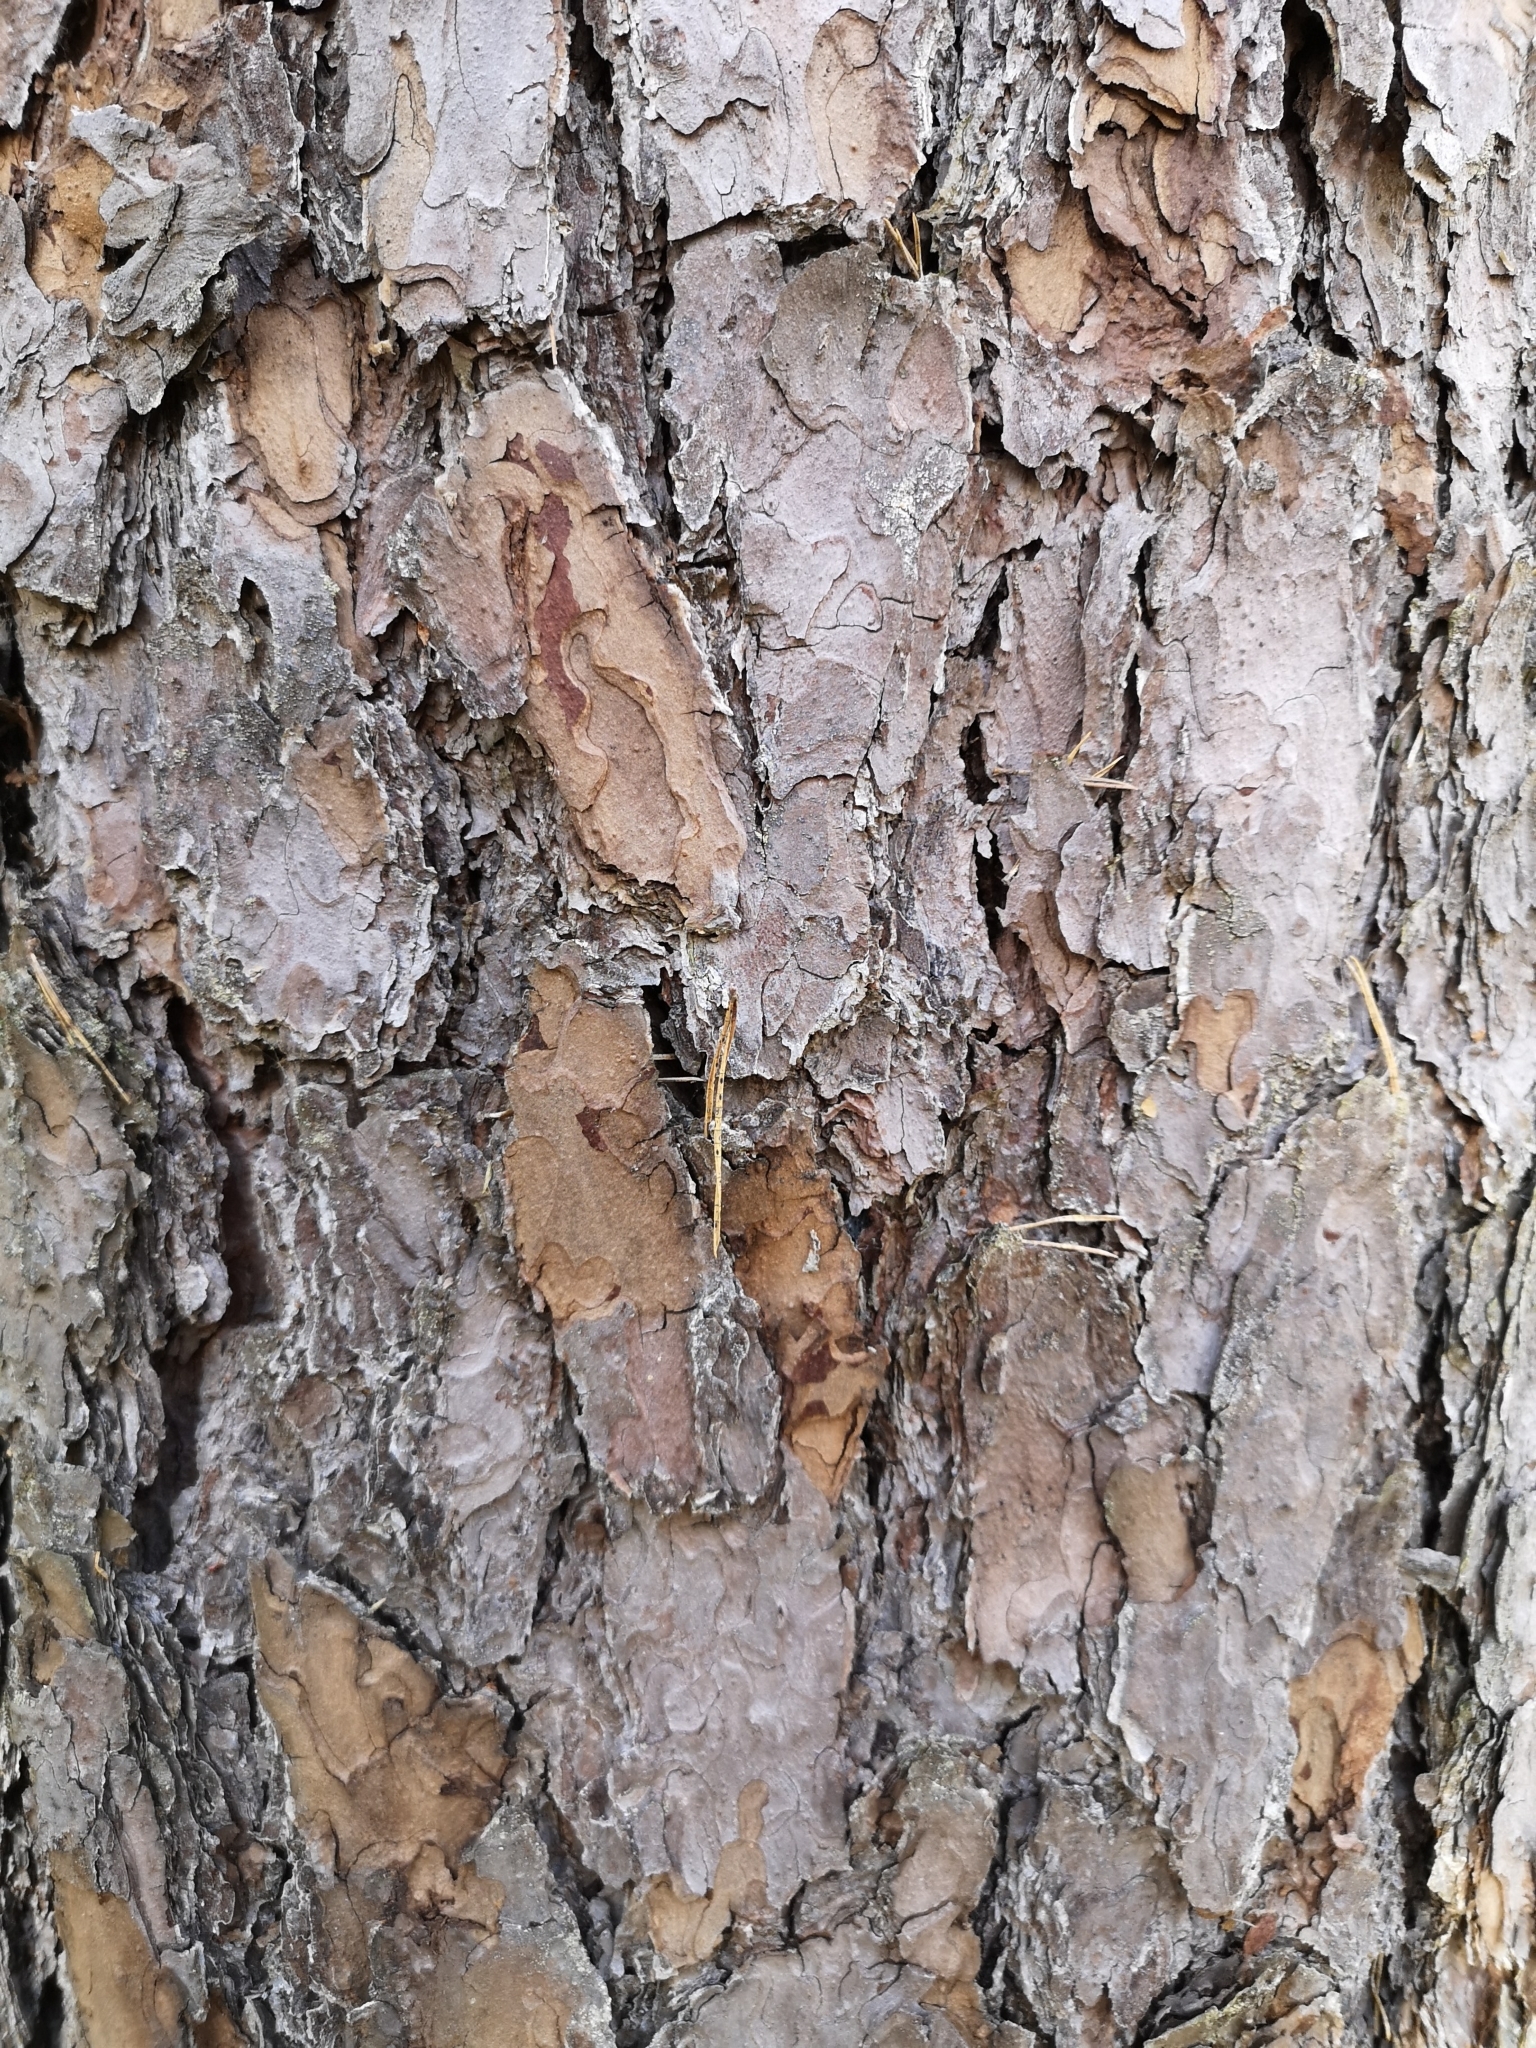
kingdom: Plantae
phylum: Tracheophyta
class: Pinopsida
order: Pinales
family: Pinaceae
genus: Pinus
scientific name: Pinus sylvestris
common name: Scots pine
